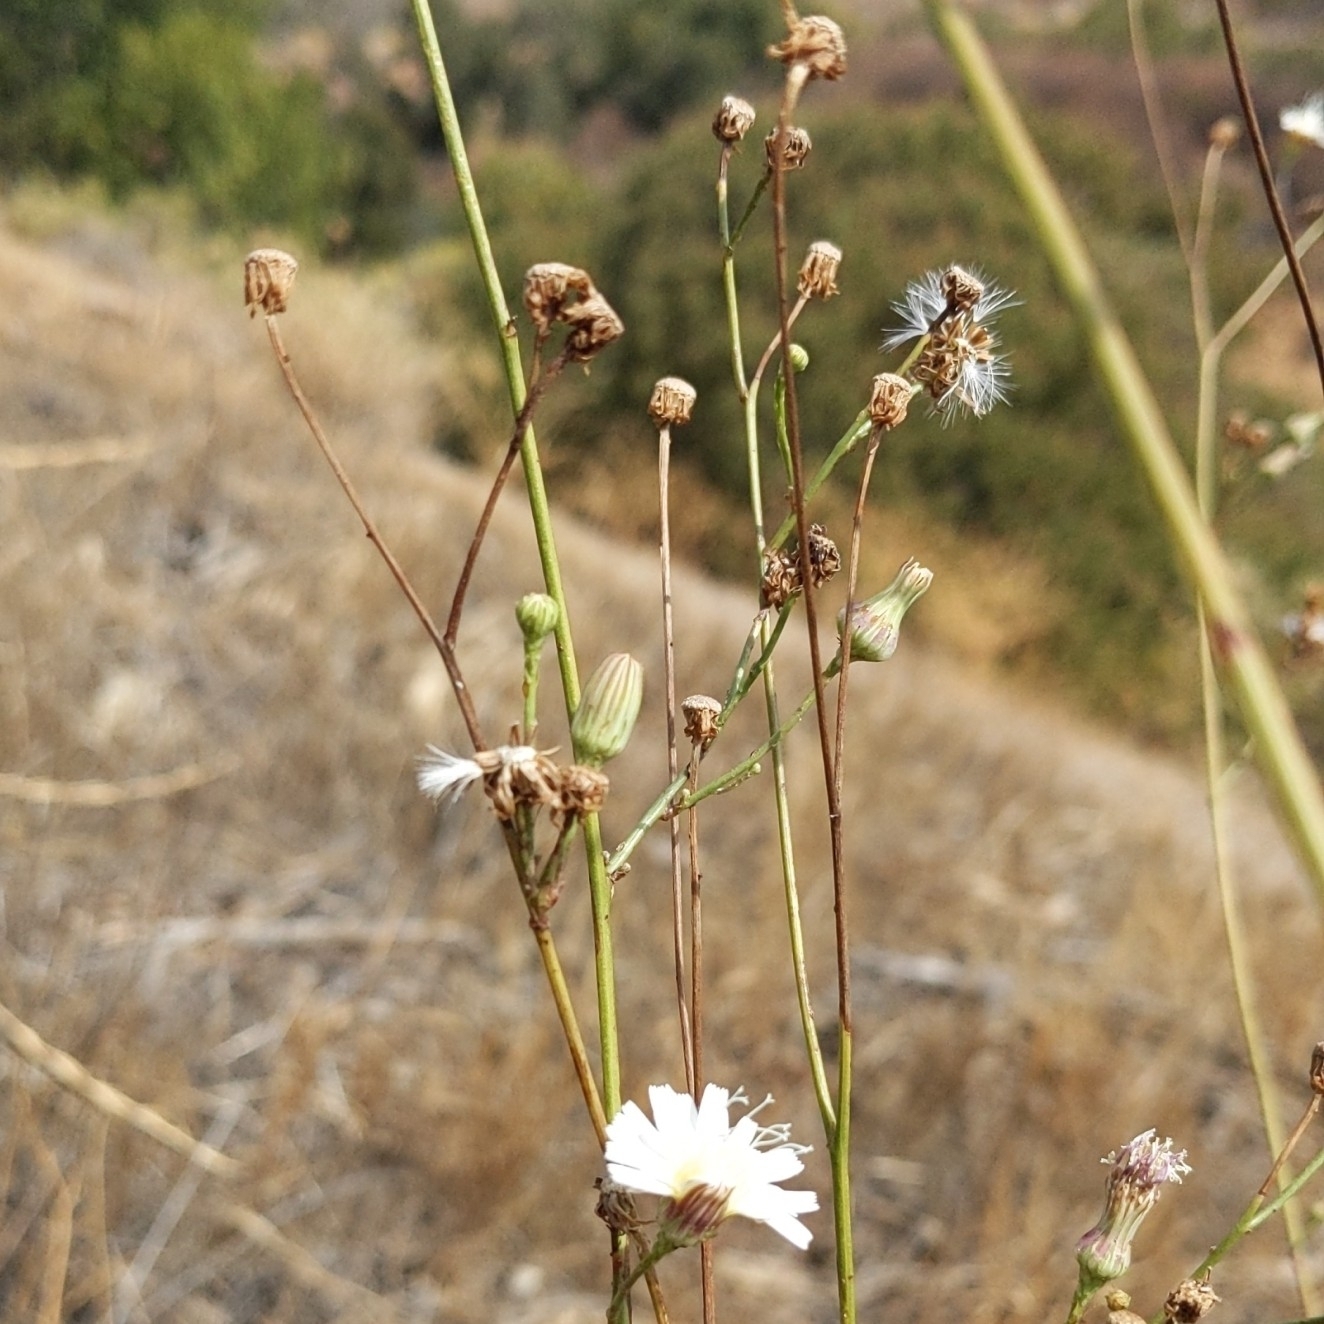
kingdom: Plantae
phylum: Tracheophyta
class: Magnoliopsida
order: Asterales
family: Asteraceae
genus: Malacothrix
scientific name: Malacothrix saxatilis
